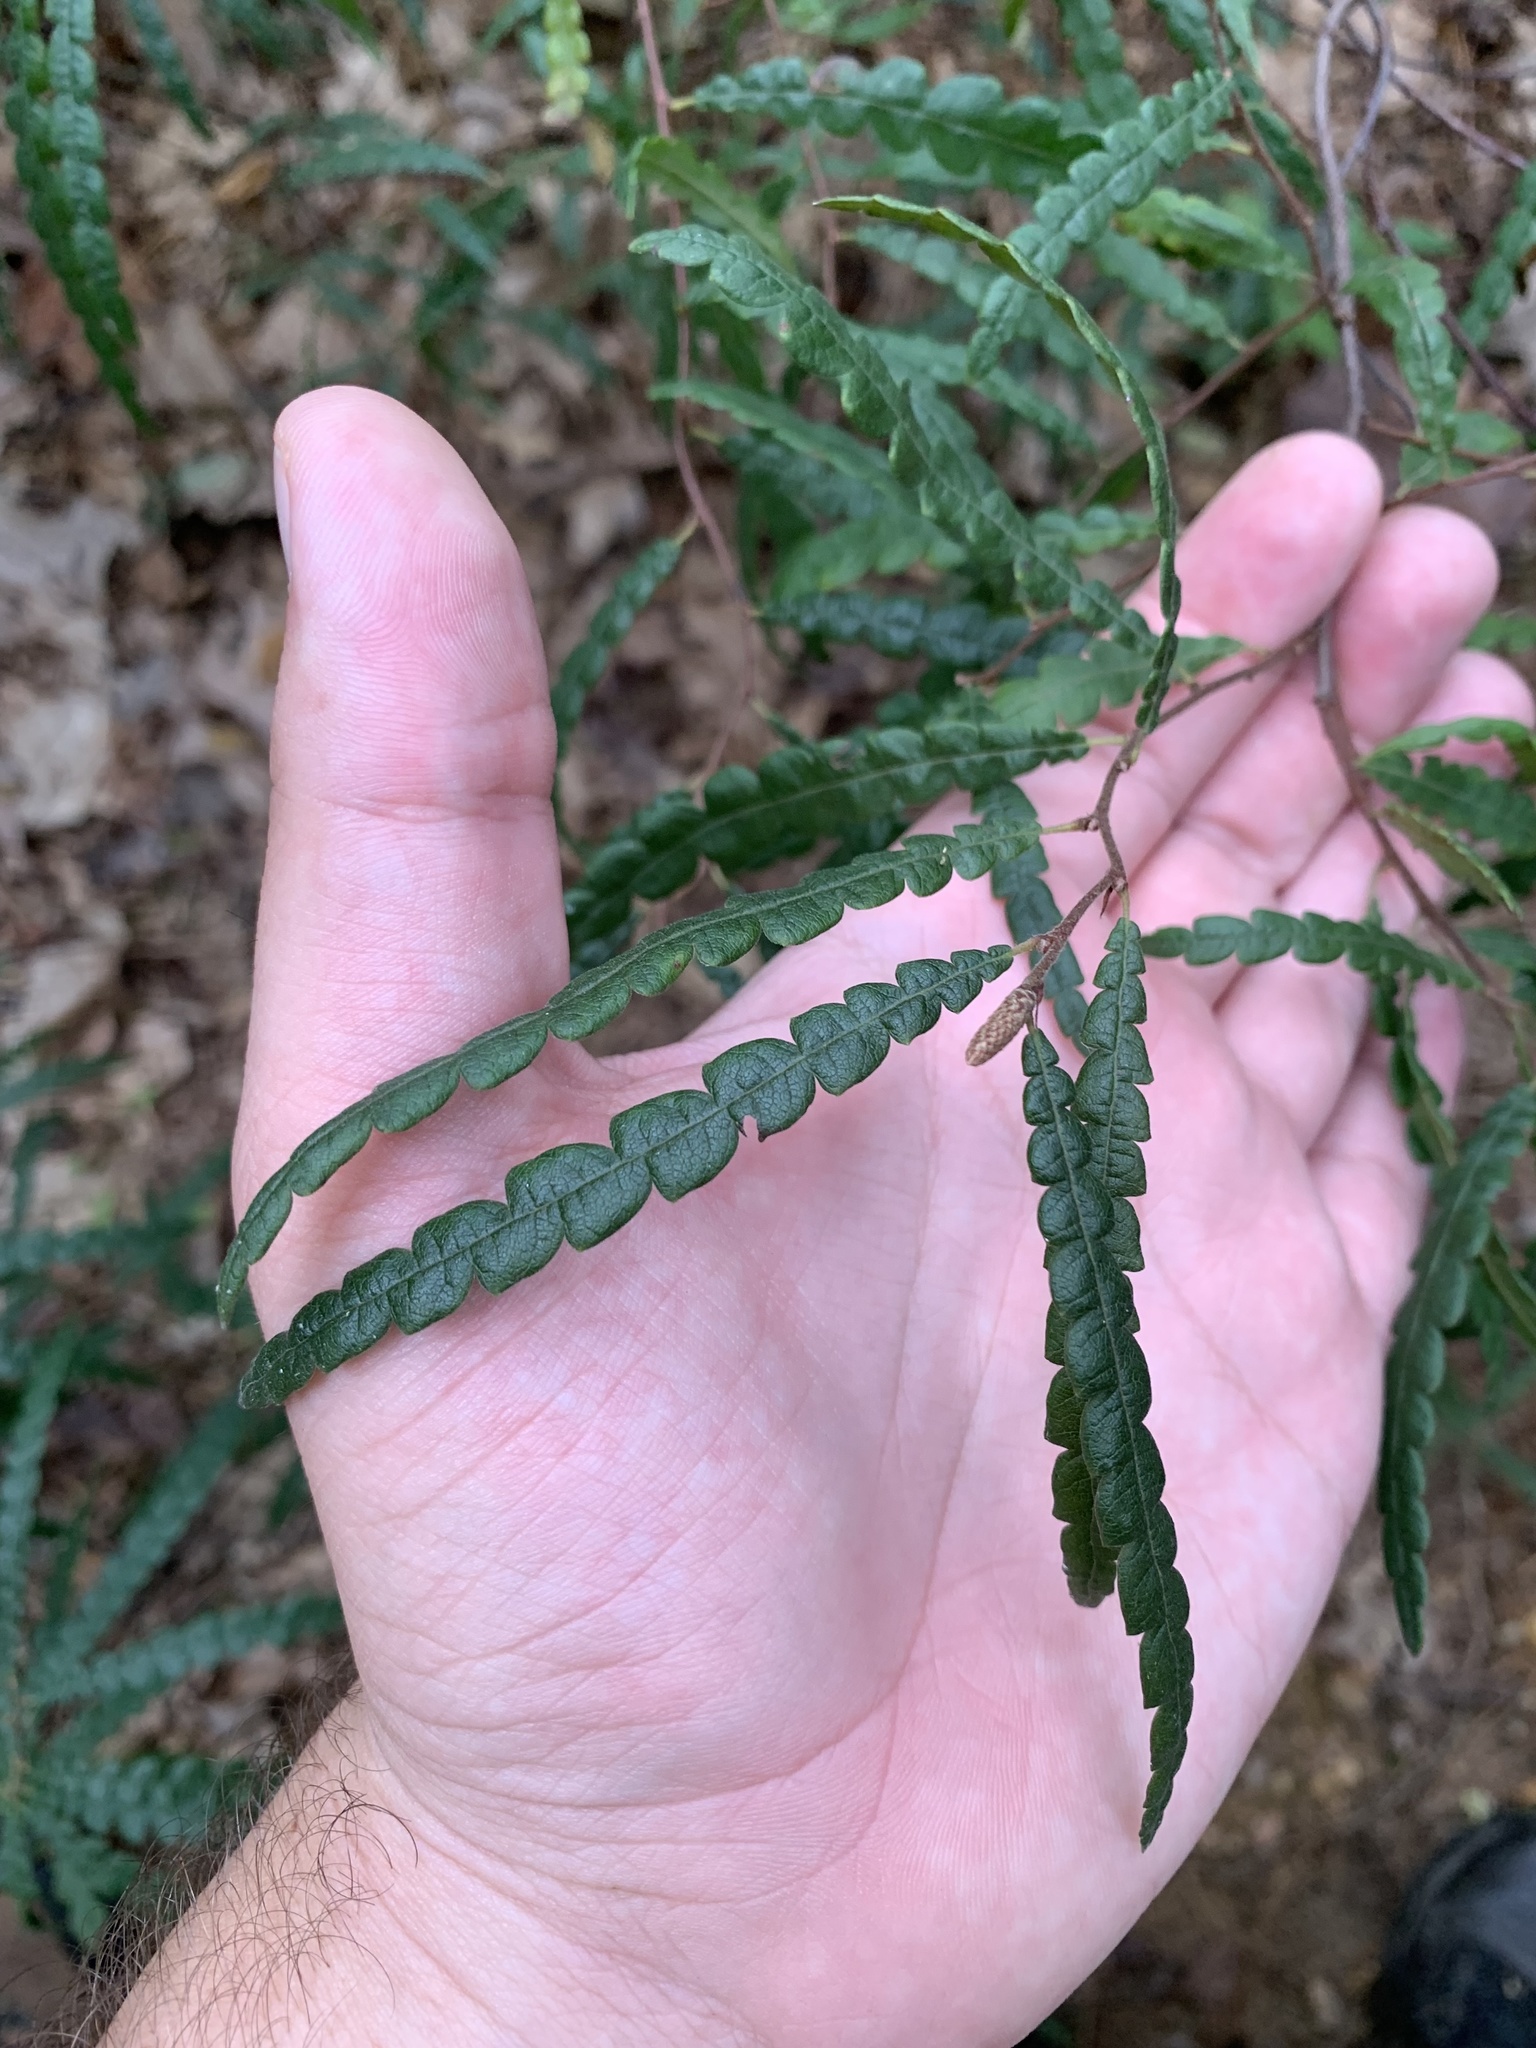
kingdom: Plantae
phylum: Tracheophyta
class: Magnoliopsida
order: Fagales
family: Myricaceae
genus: Comptonia
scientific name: Comptonia peregrina
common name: Sweet-fern
